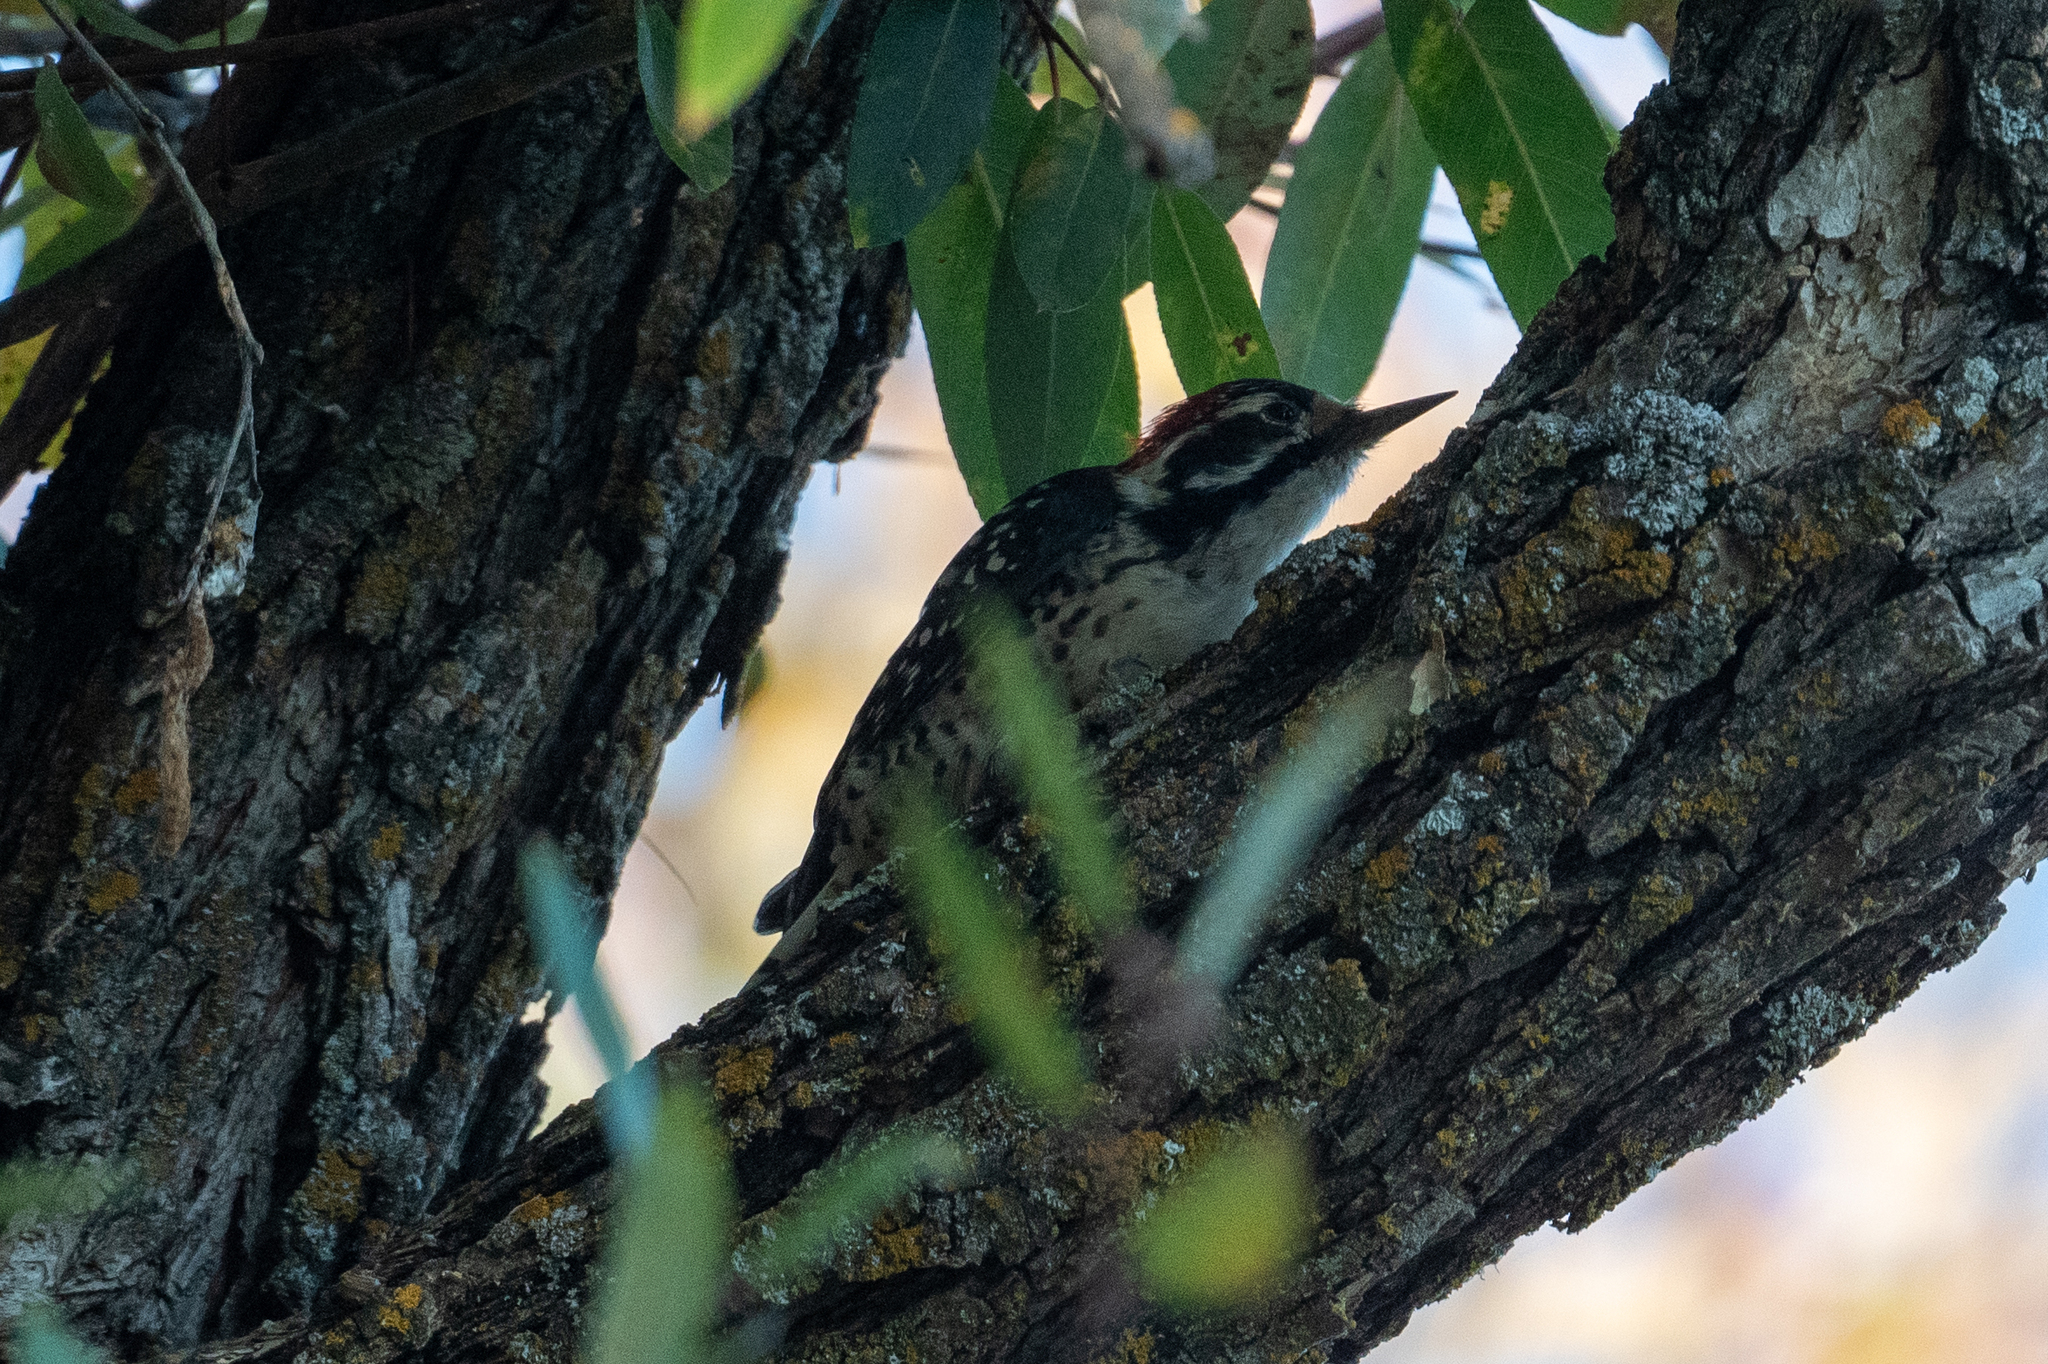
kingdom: Animalia
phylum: Chordata
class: Aves
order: Piciformes
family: Picidae
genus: Dryobates
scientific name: Dryobates nuttallii
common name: Nuttall's woodpecker
